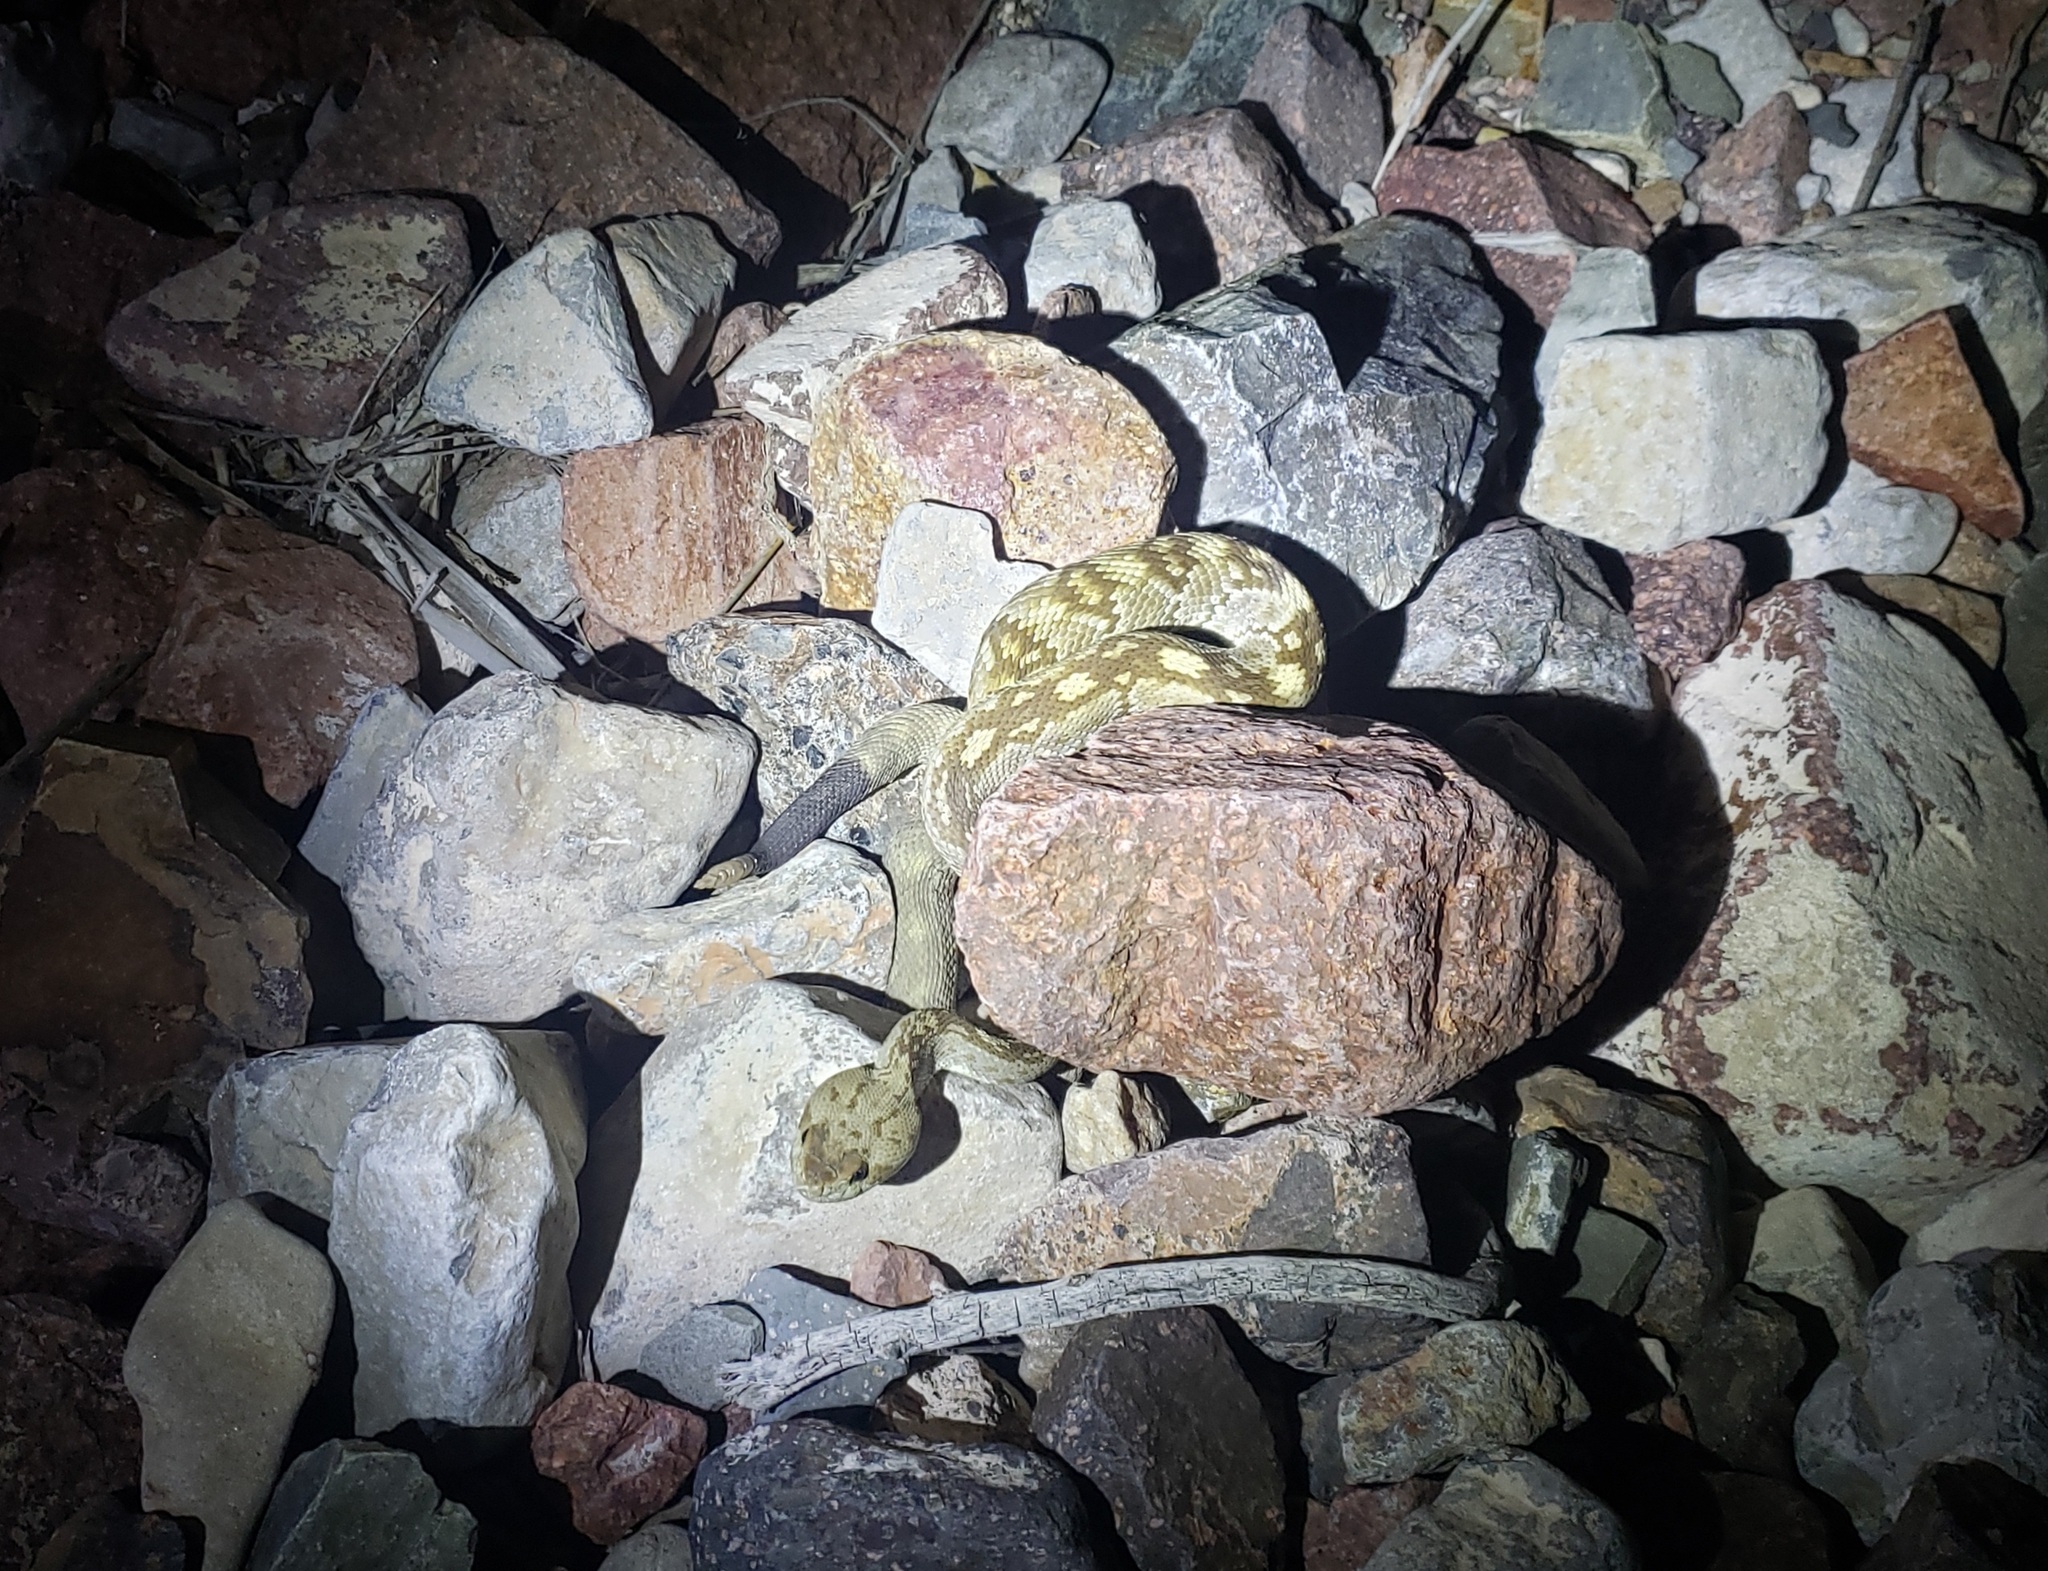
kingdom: Animalia
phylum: Chordata
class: Squamata
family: Viperidae
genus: Crotalus
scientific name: Crotalus ornatus
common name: Black-tailed rattlesnake
